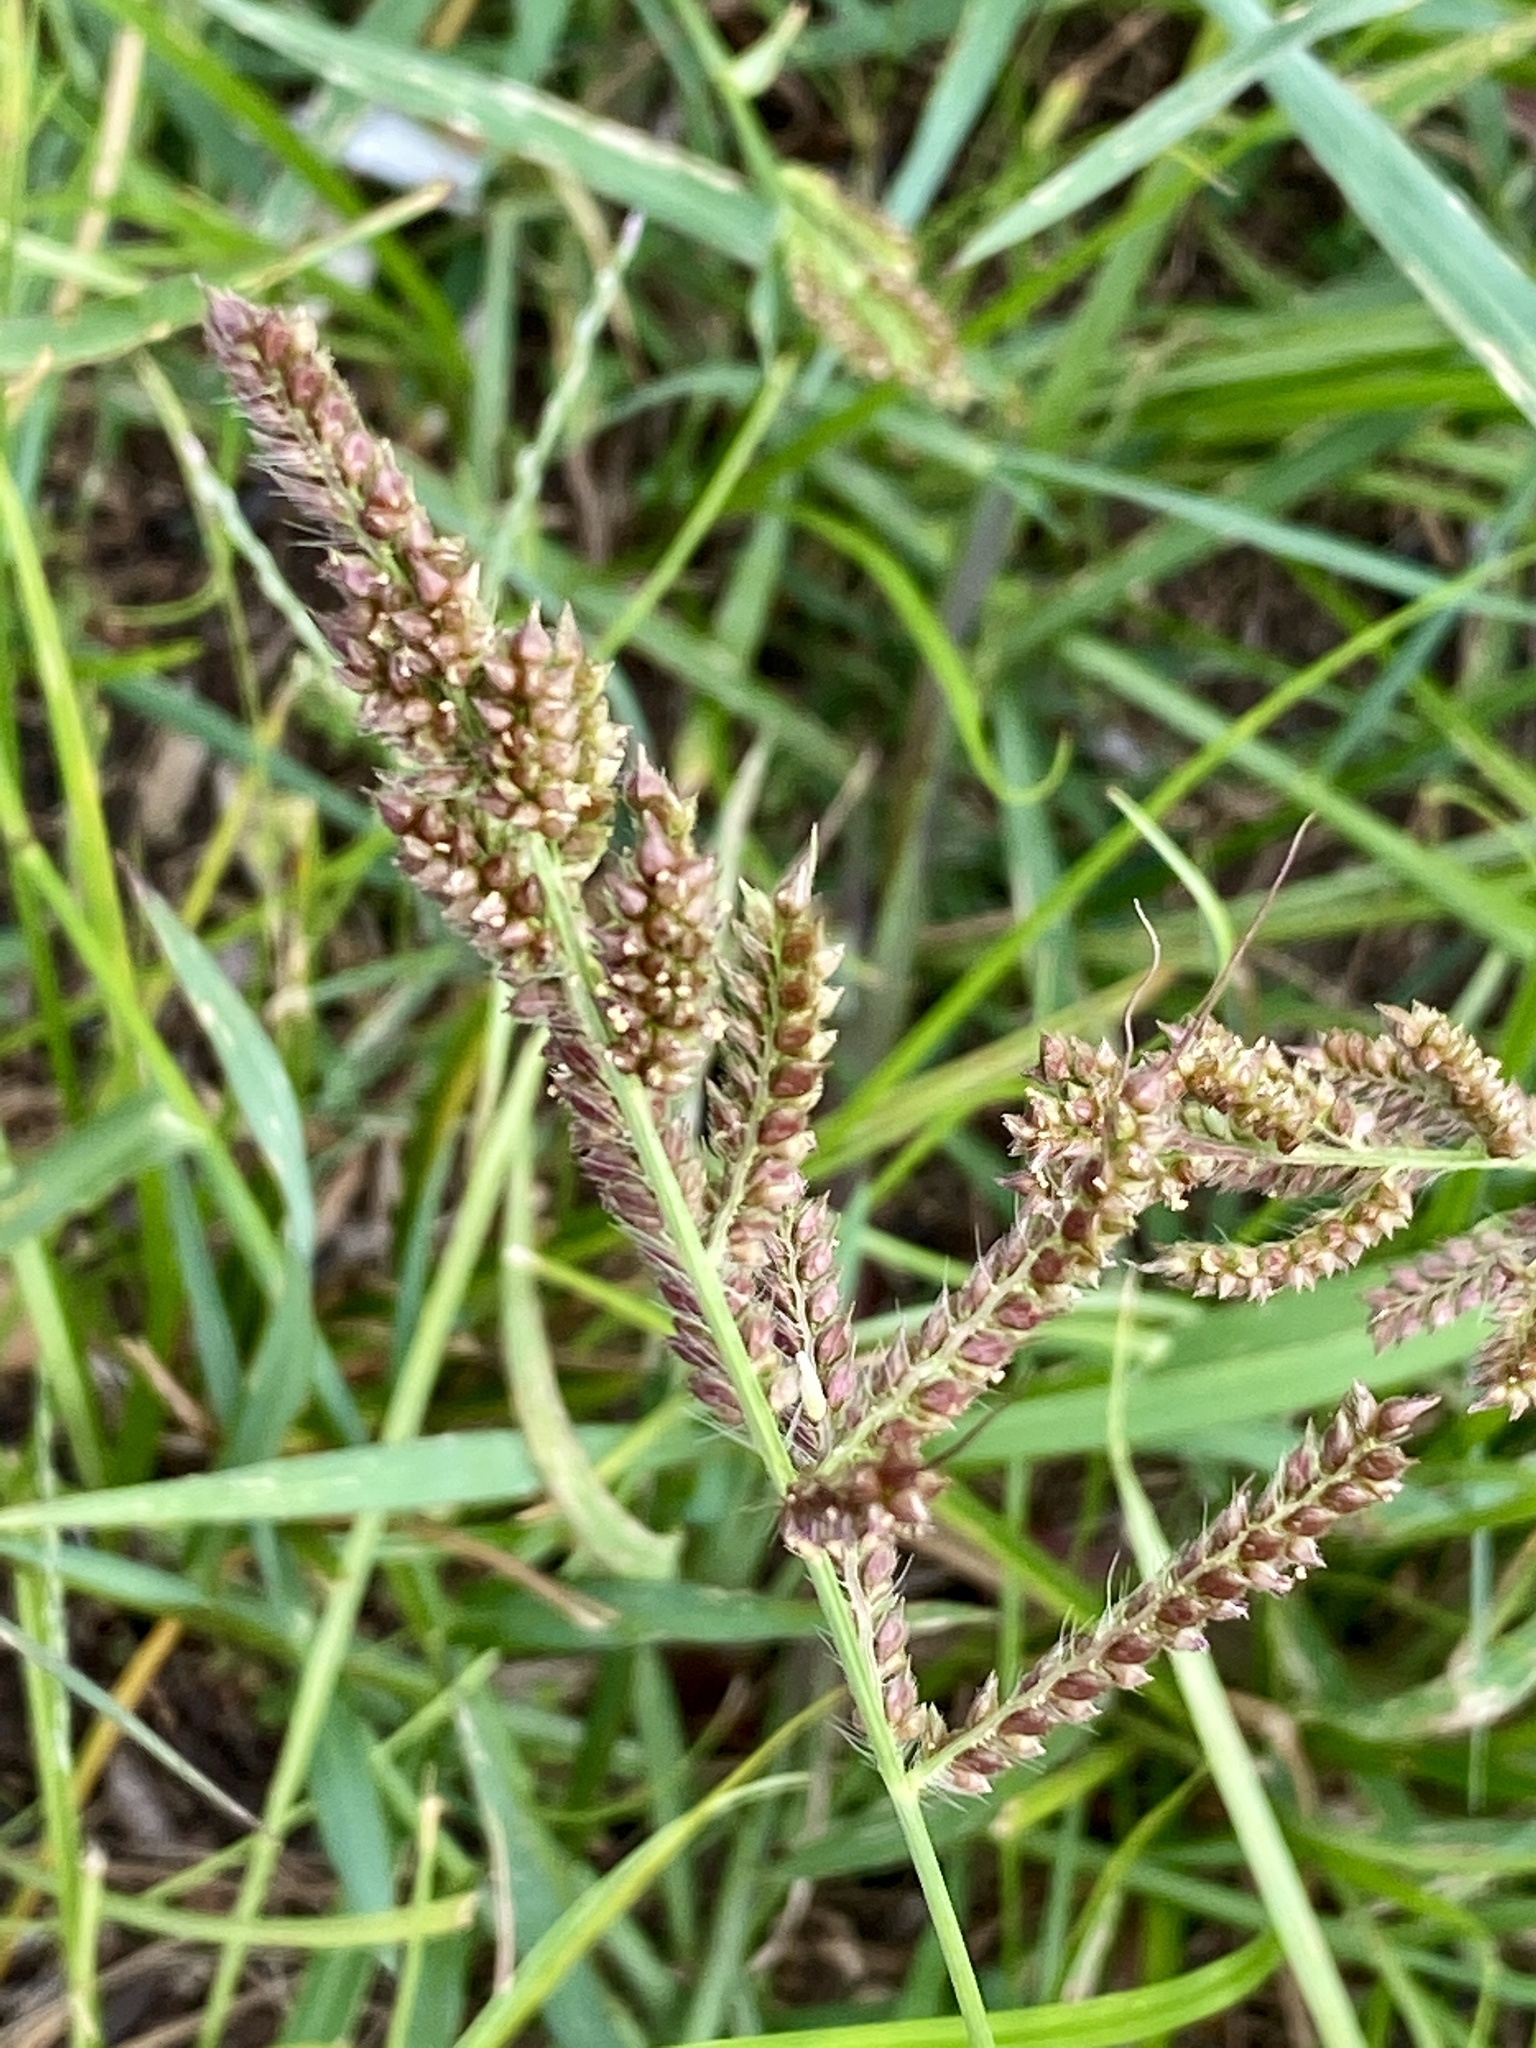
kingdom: Plantae
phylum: Tracheophyta
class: Liliopsida
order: Poales
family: Poaceae
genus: Echinochloa
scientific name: Echinochloa crus-galli
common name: Cockspur
